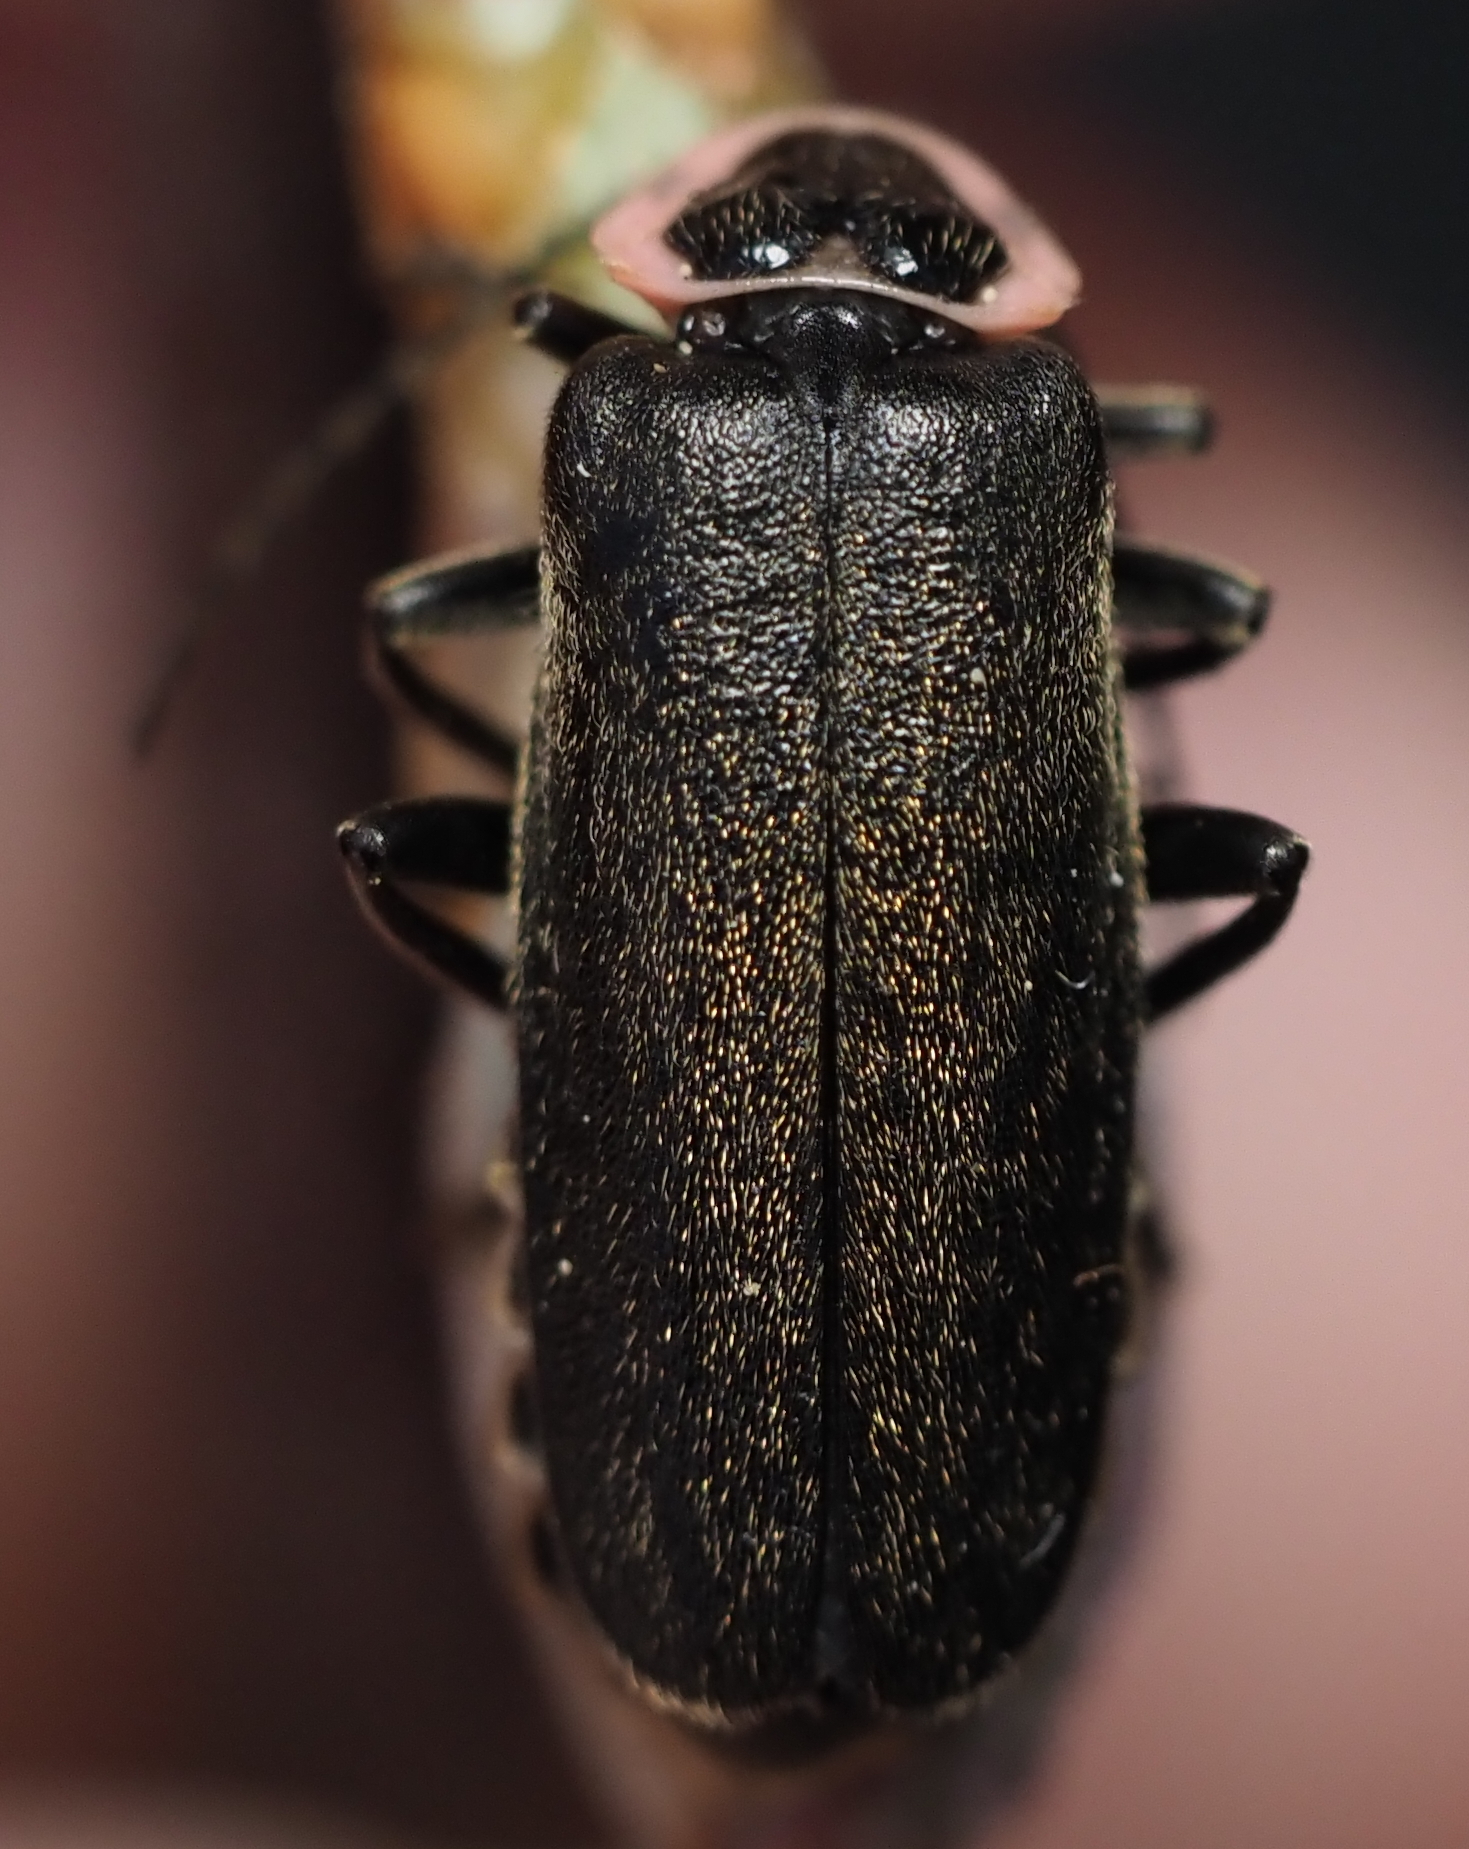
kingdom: Animalia
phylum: Arthropoda
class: Insecta
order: Coleoptera
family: Cantharidae
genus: Atalantycha
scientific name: Atalantycha neglecta
